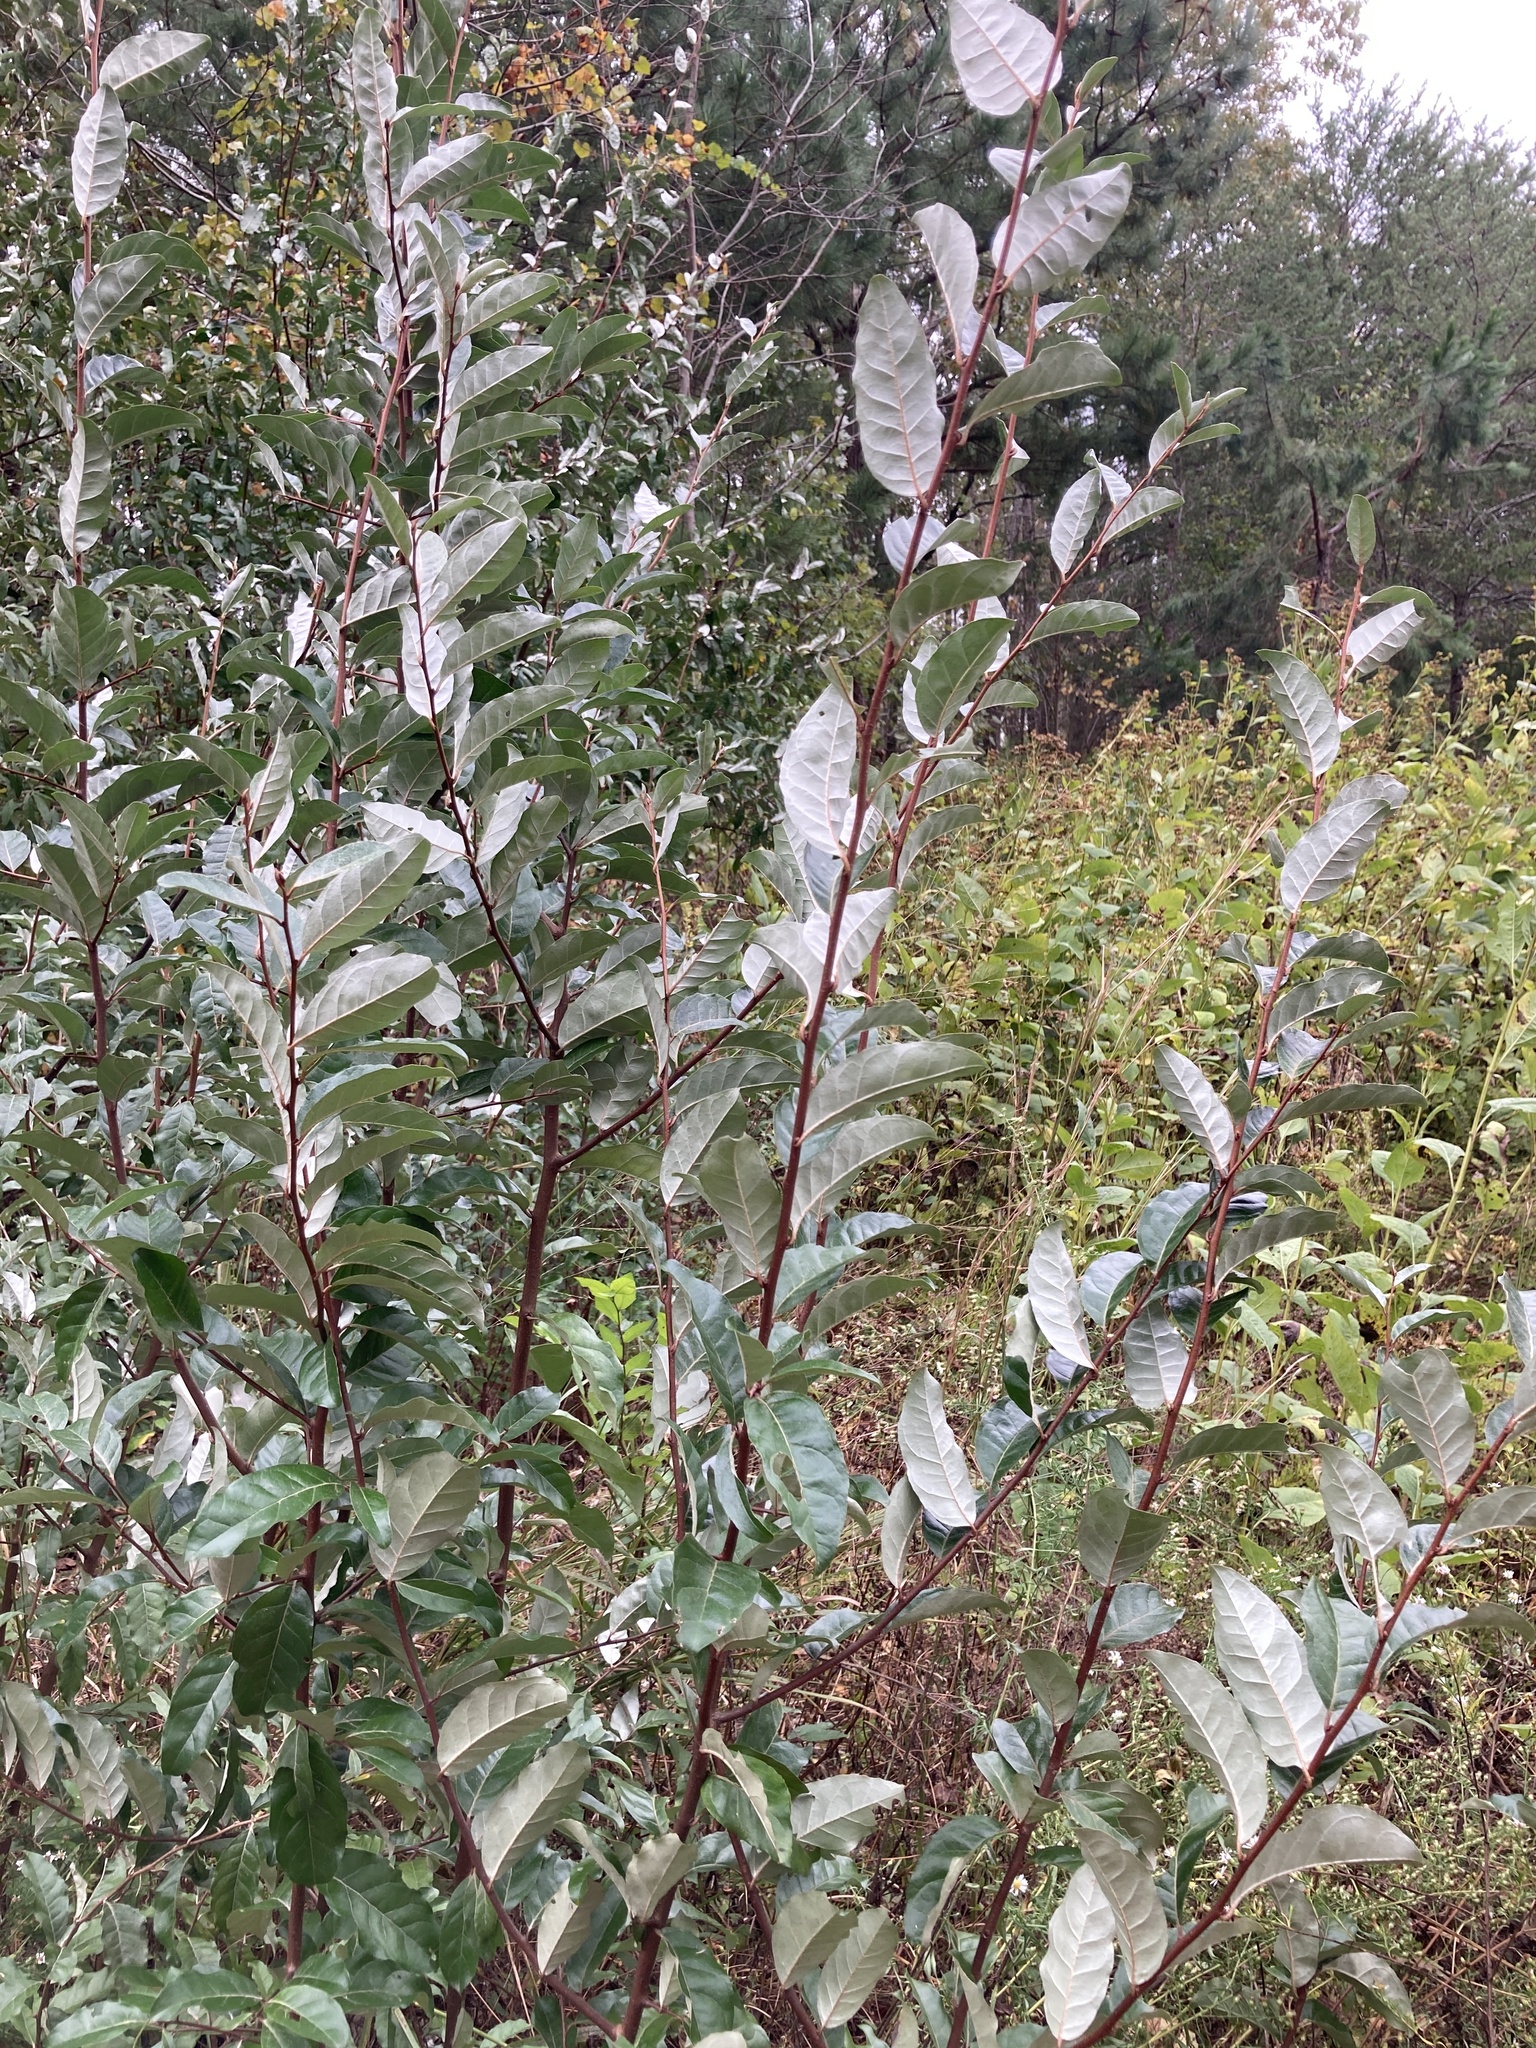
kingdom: Plantae
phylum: Tracheophyta
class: Magnoliopsida
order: Rosales
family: Elaeagnaceae
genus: Elaeagnus
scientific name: Elaeagnus umbellata
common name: Autumn olive
